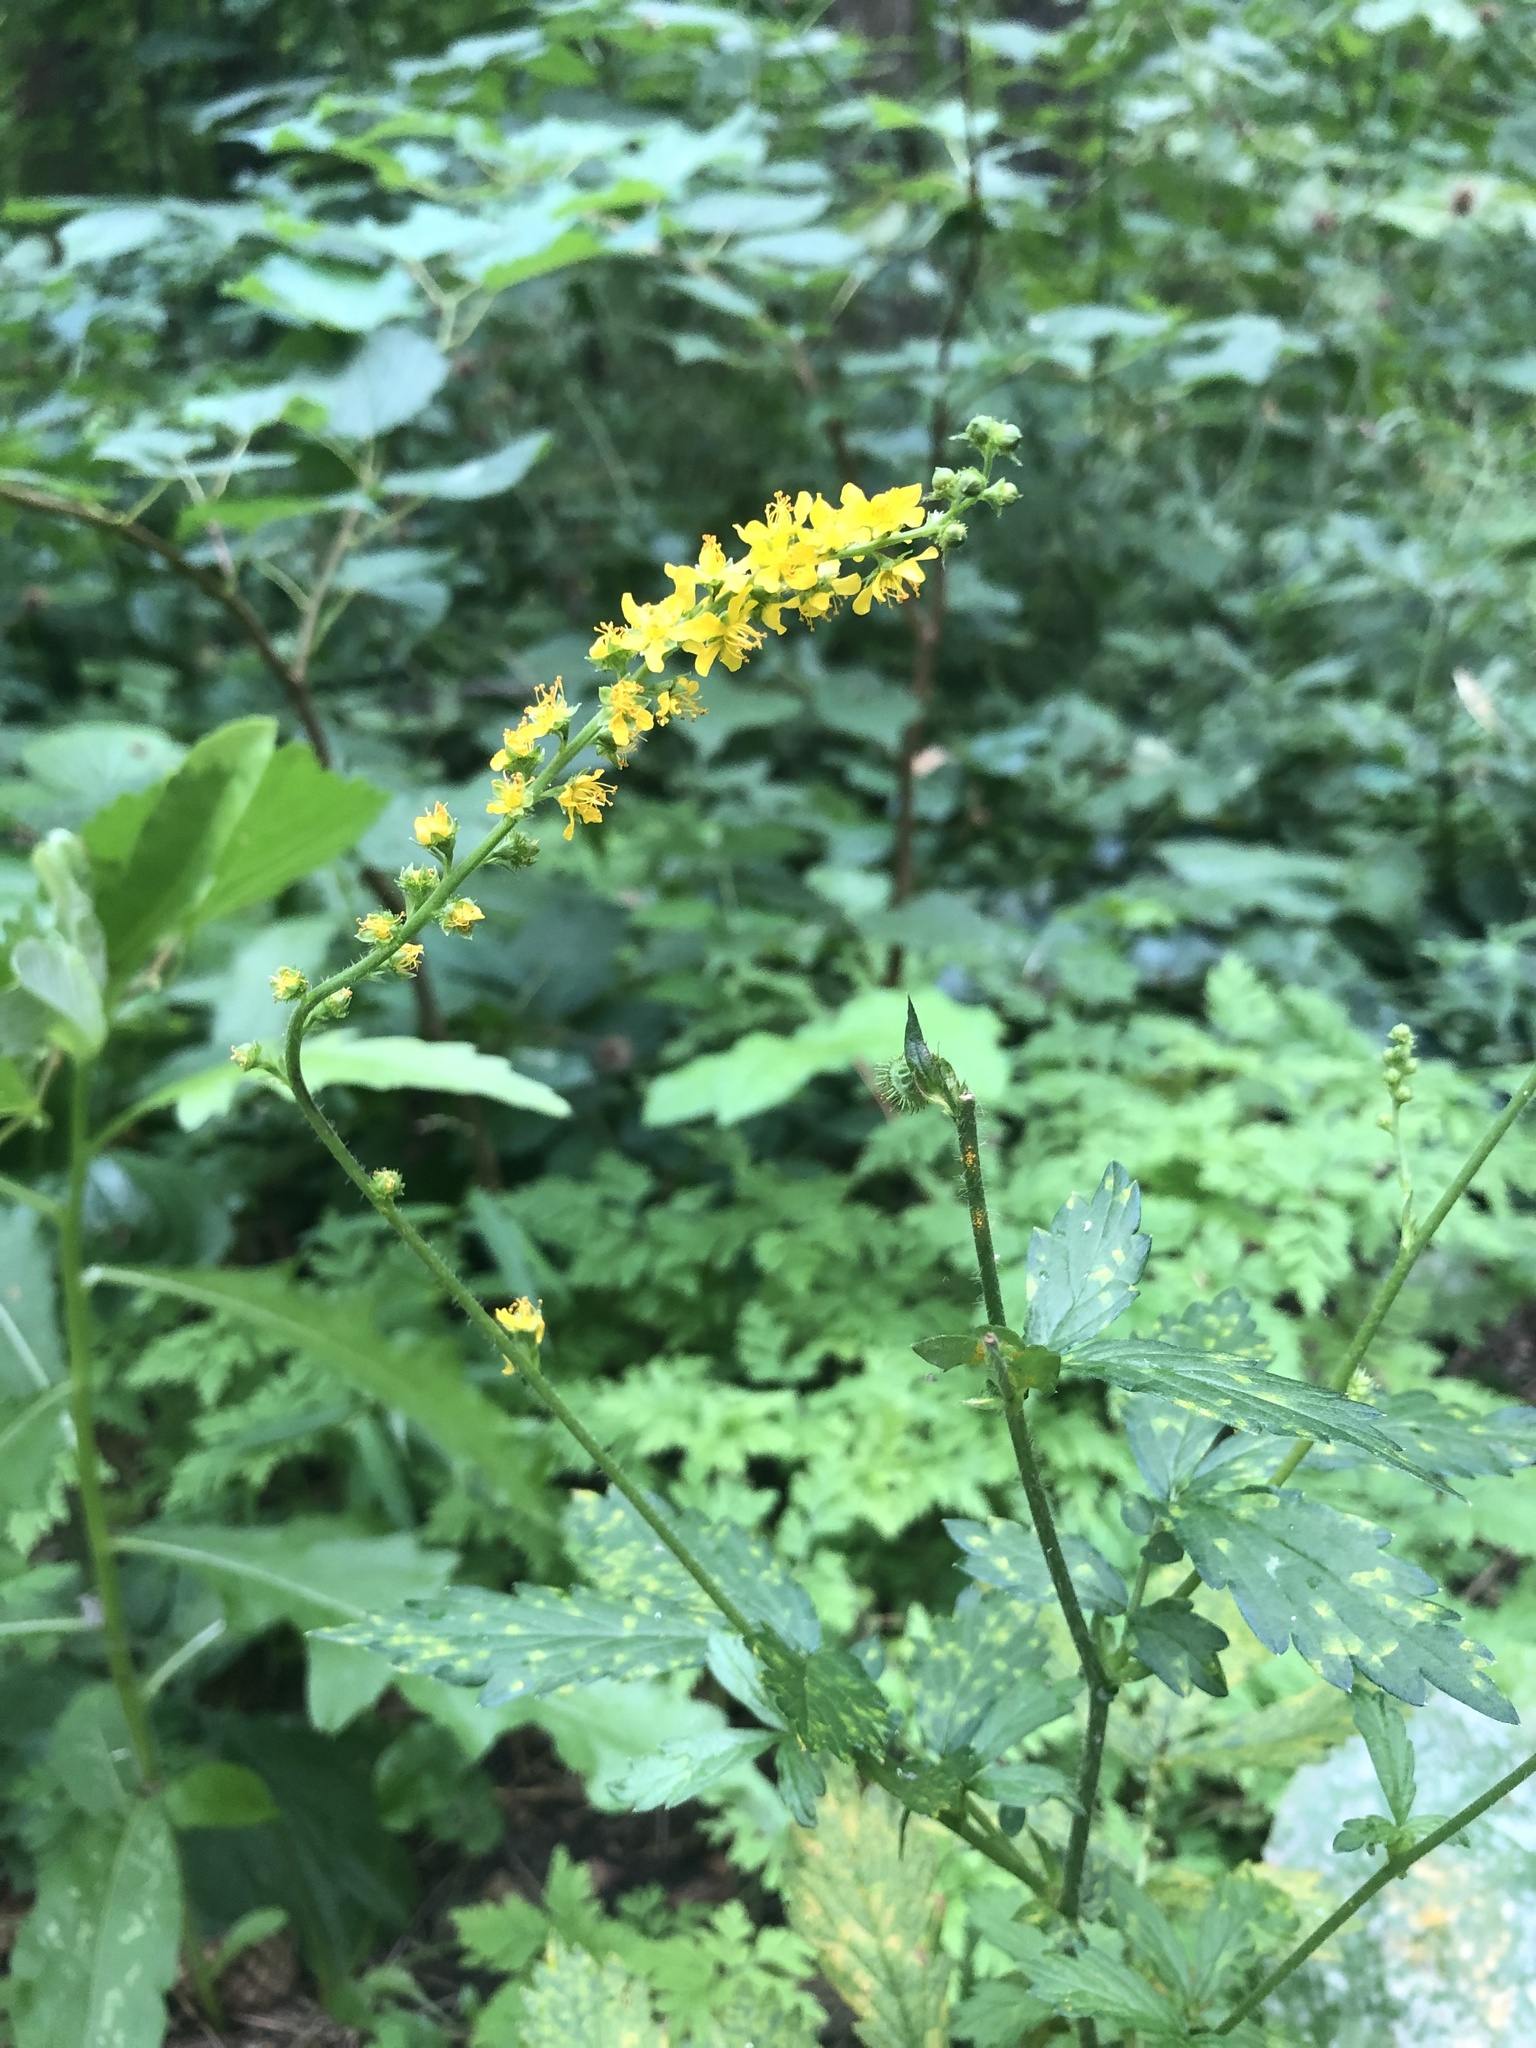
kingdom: Plantae
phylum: Tracheophyta
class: Magnoliopsida
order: Rosales
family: Rosaceae
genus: Agrimonia
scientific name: Agrimonia pilosa
